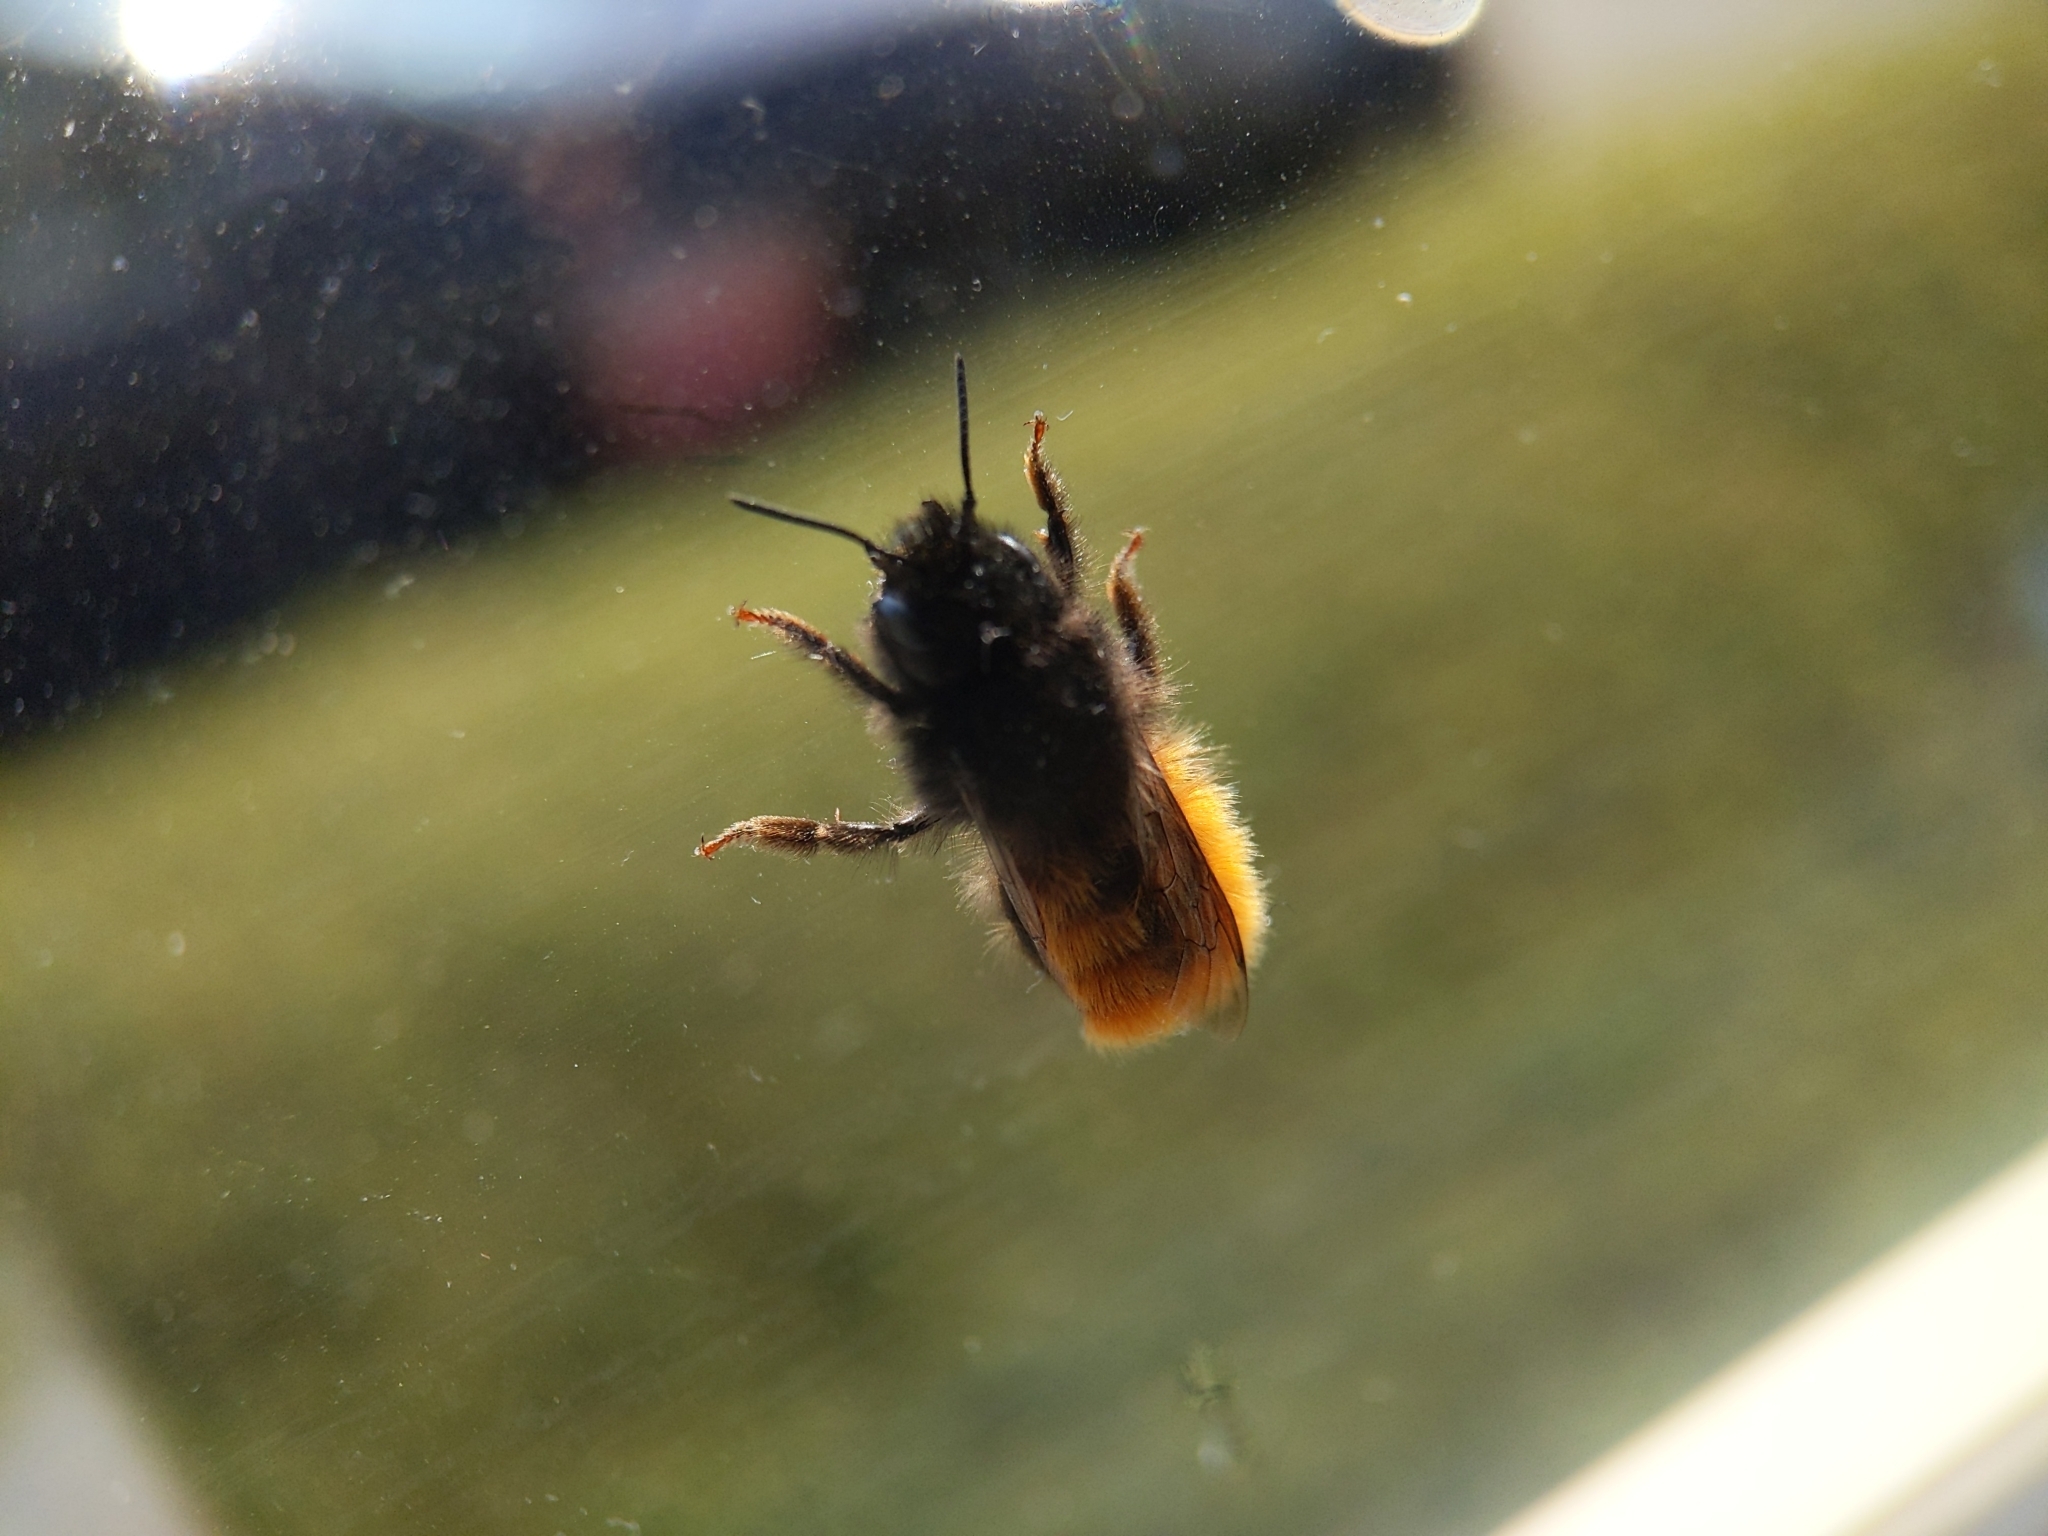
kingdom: Animalia
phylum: Arthropoda
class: Insecta
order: Hymenoptera
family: Megachilidae
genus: Osmia
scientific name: Osmia cornuta
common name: Mason bee
